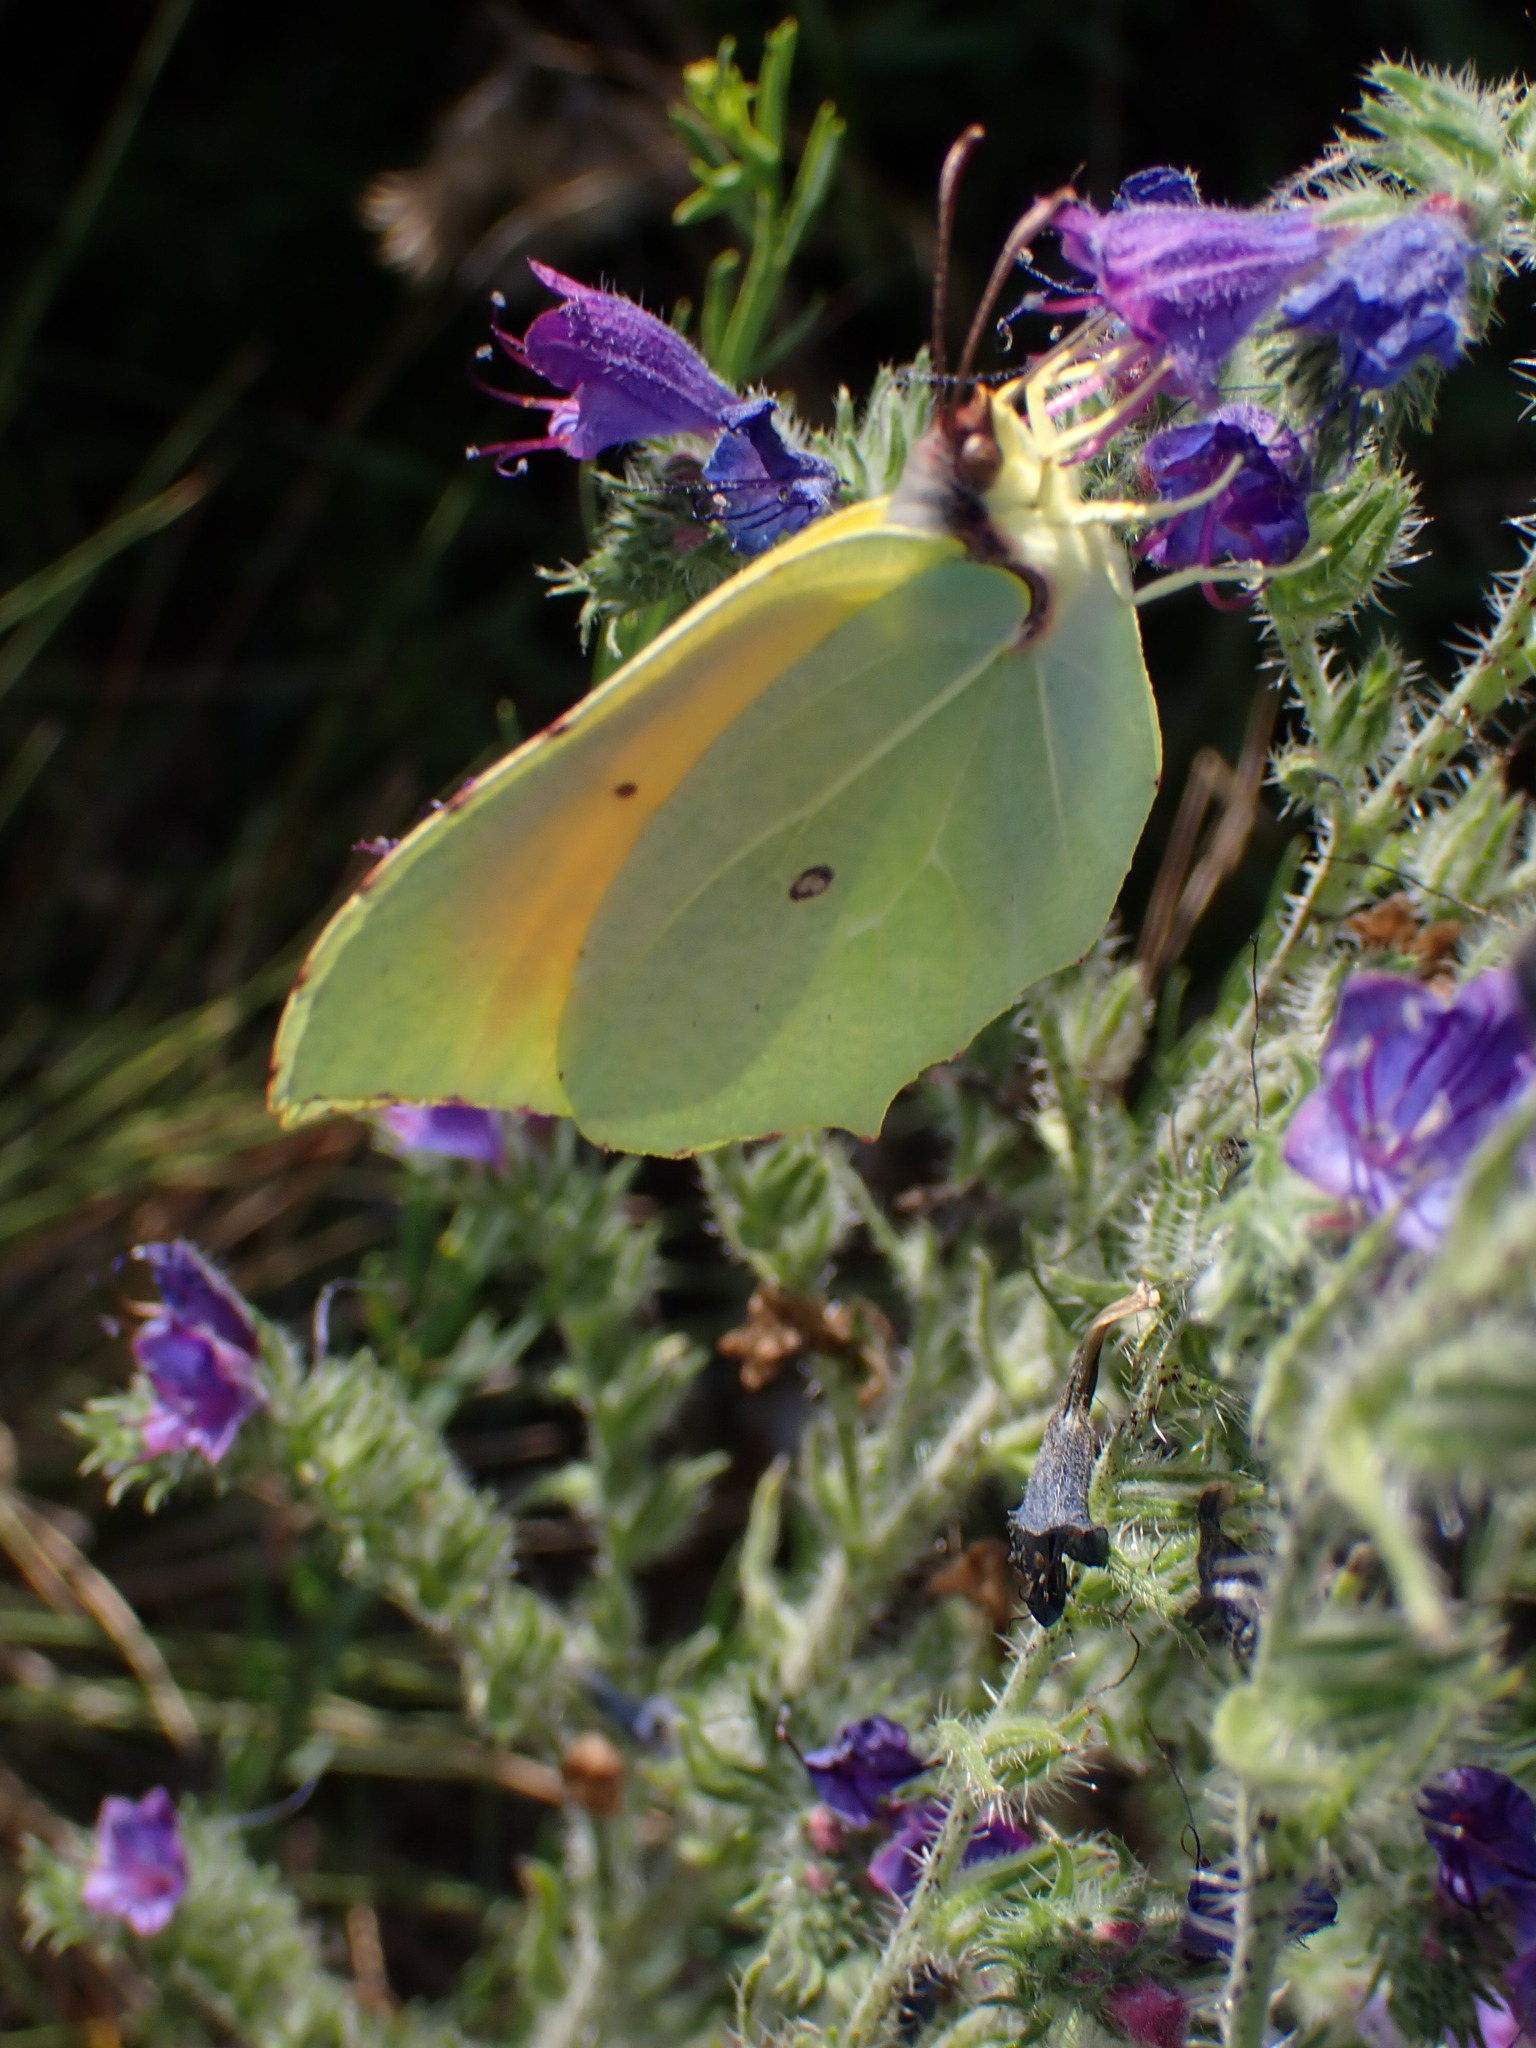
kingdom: Animalia
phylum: Arthropoda
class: Insecta
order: Lepidoptera
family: Pieridae
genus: Gonepteryx
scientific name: Gonepteryx cleopatra
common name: Cleopatra
